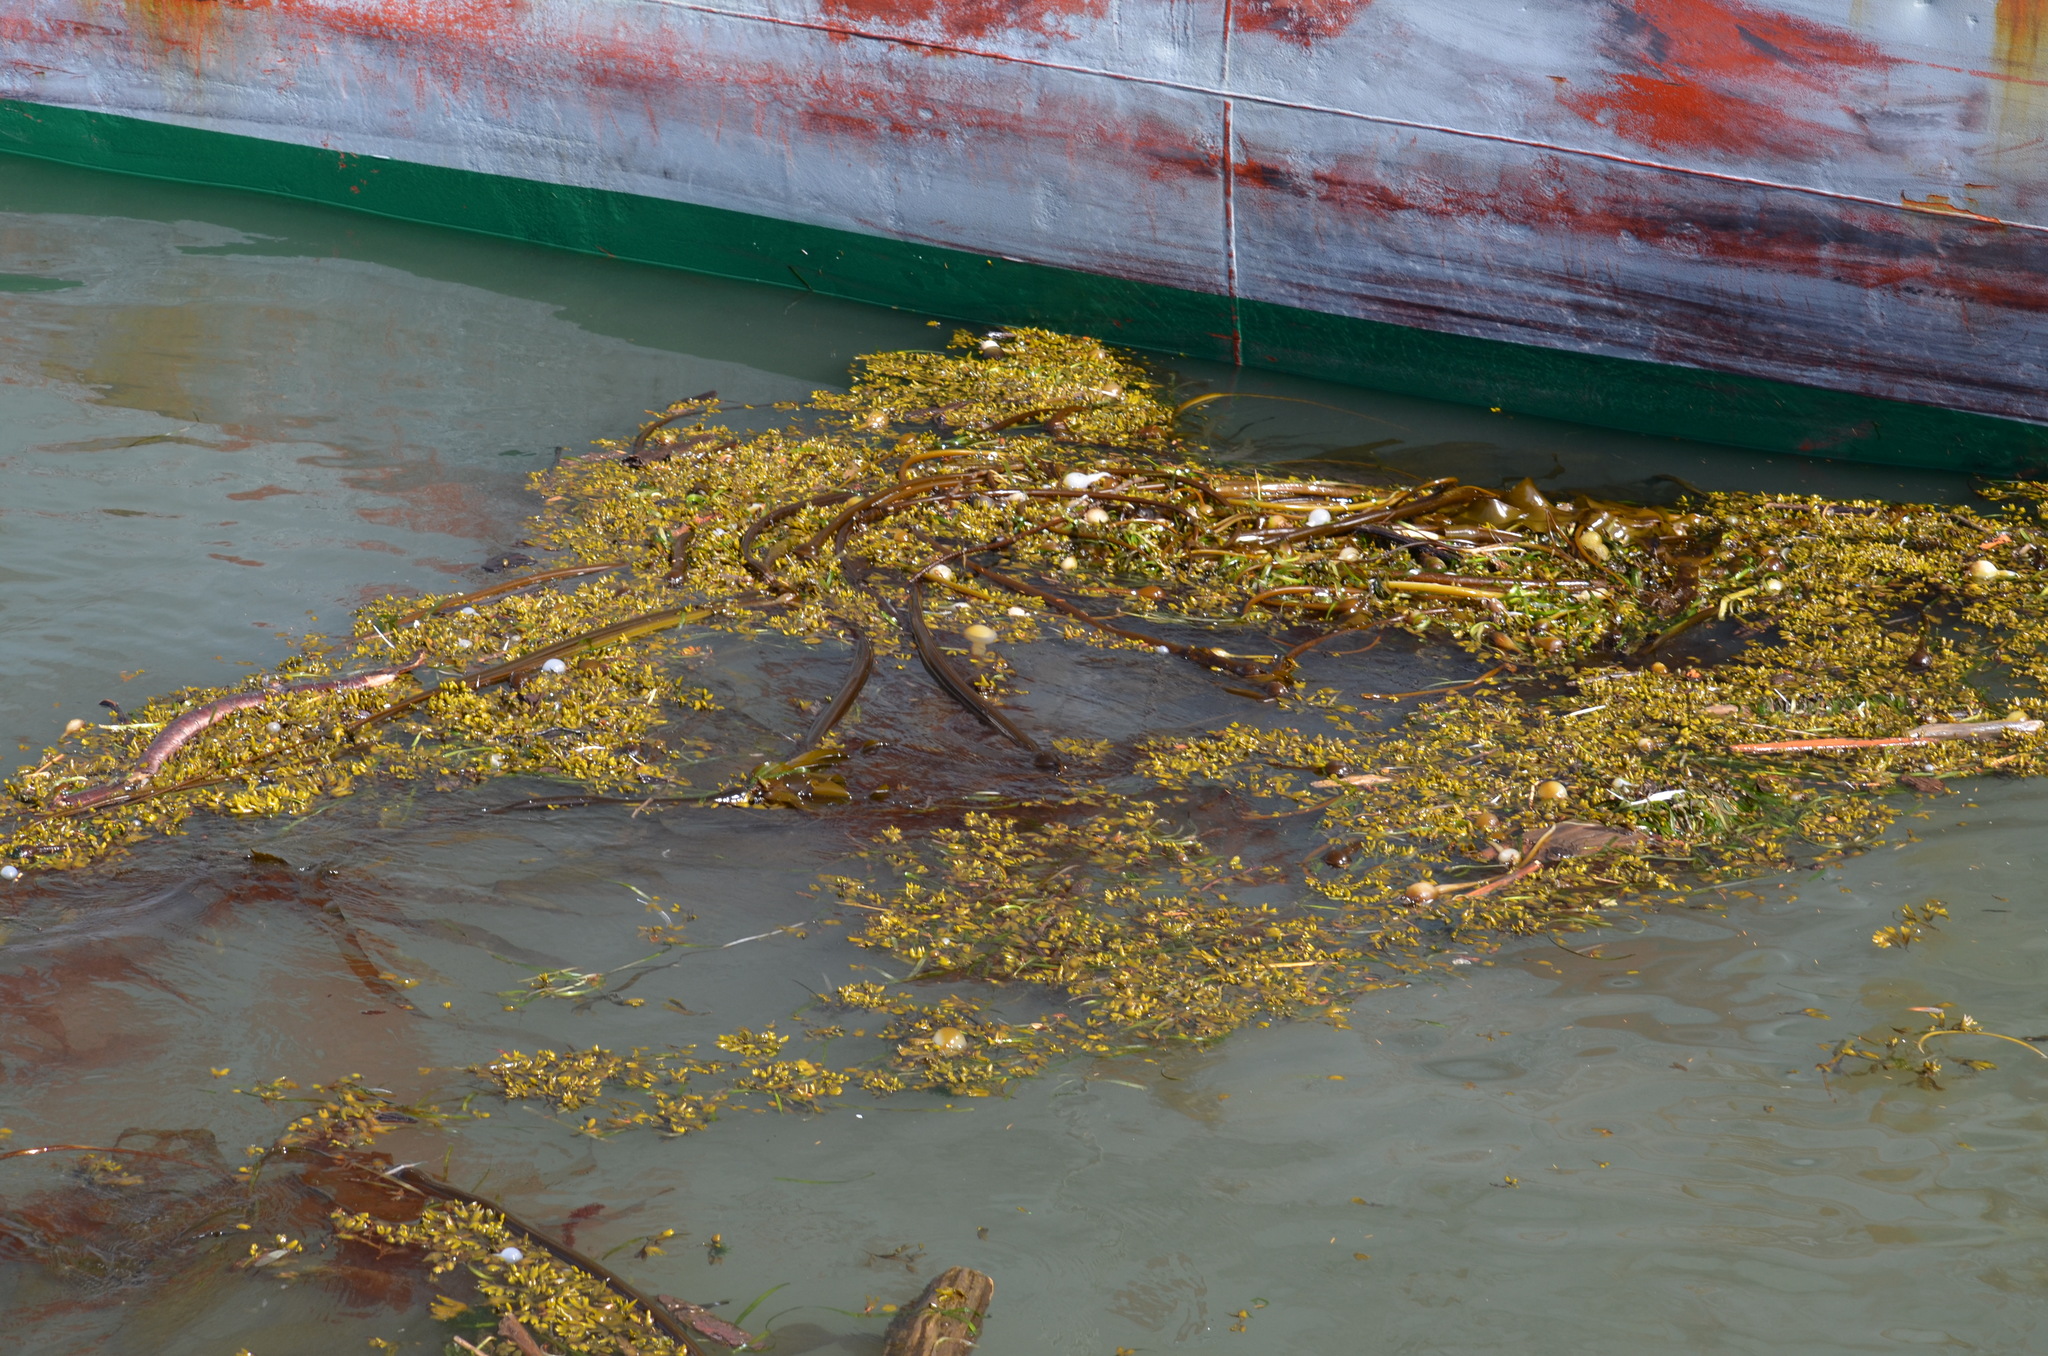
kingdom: Chromista
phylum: Ochrophyta
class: Phaeophyceae
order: Laminariales
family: Laminariaceae
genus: Nereocystis
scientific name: Nereocystis luetkeana
